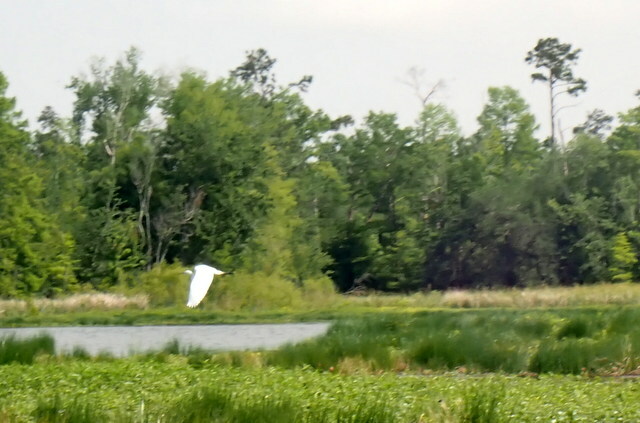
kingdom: Animalia
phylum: Chordata
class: Aves
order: Pelecaniformes
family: Ardeidae
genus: Ardea
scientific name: Ardea alba
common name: Great egret
